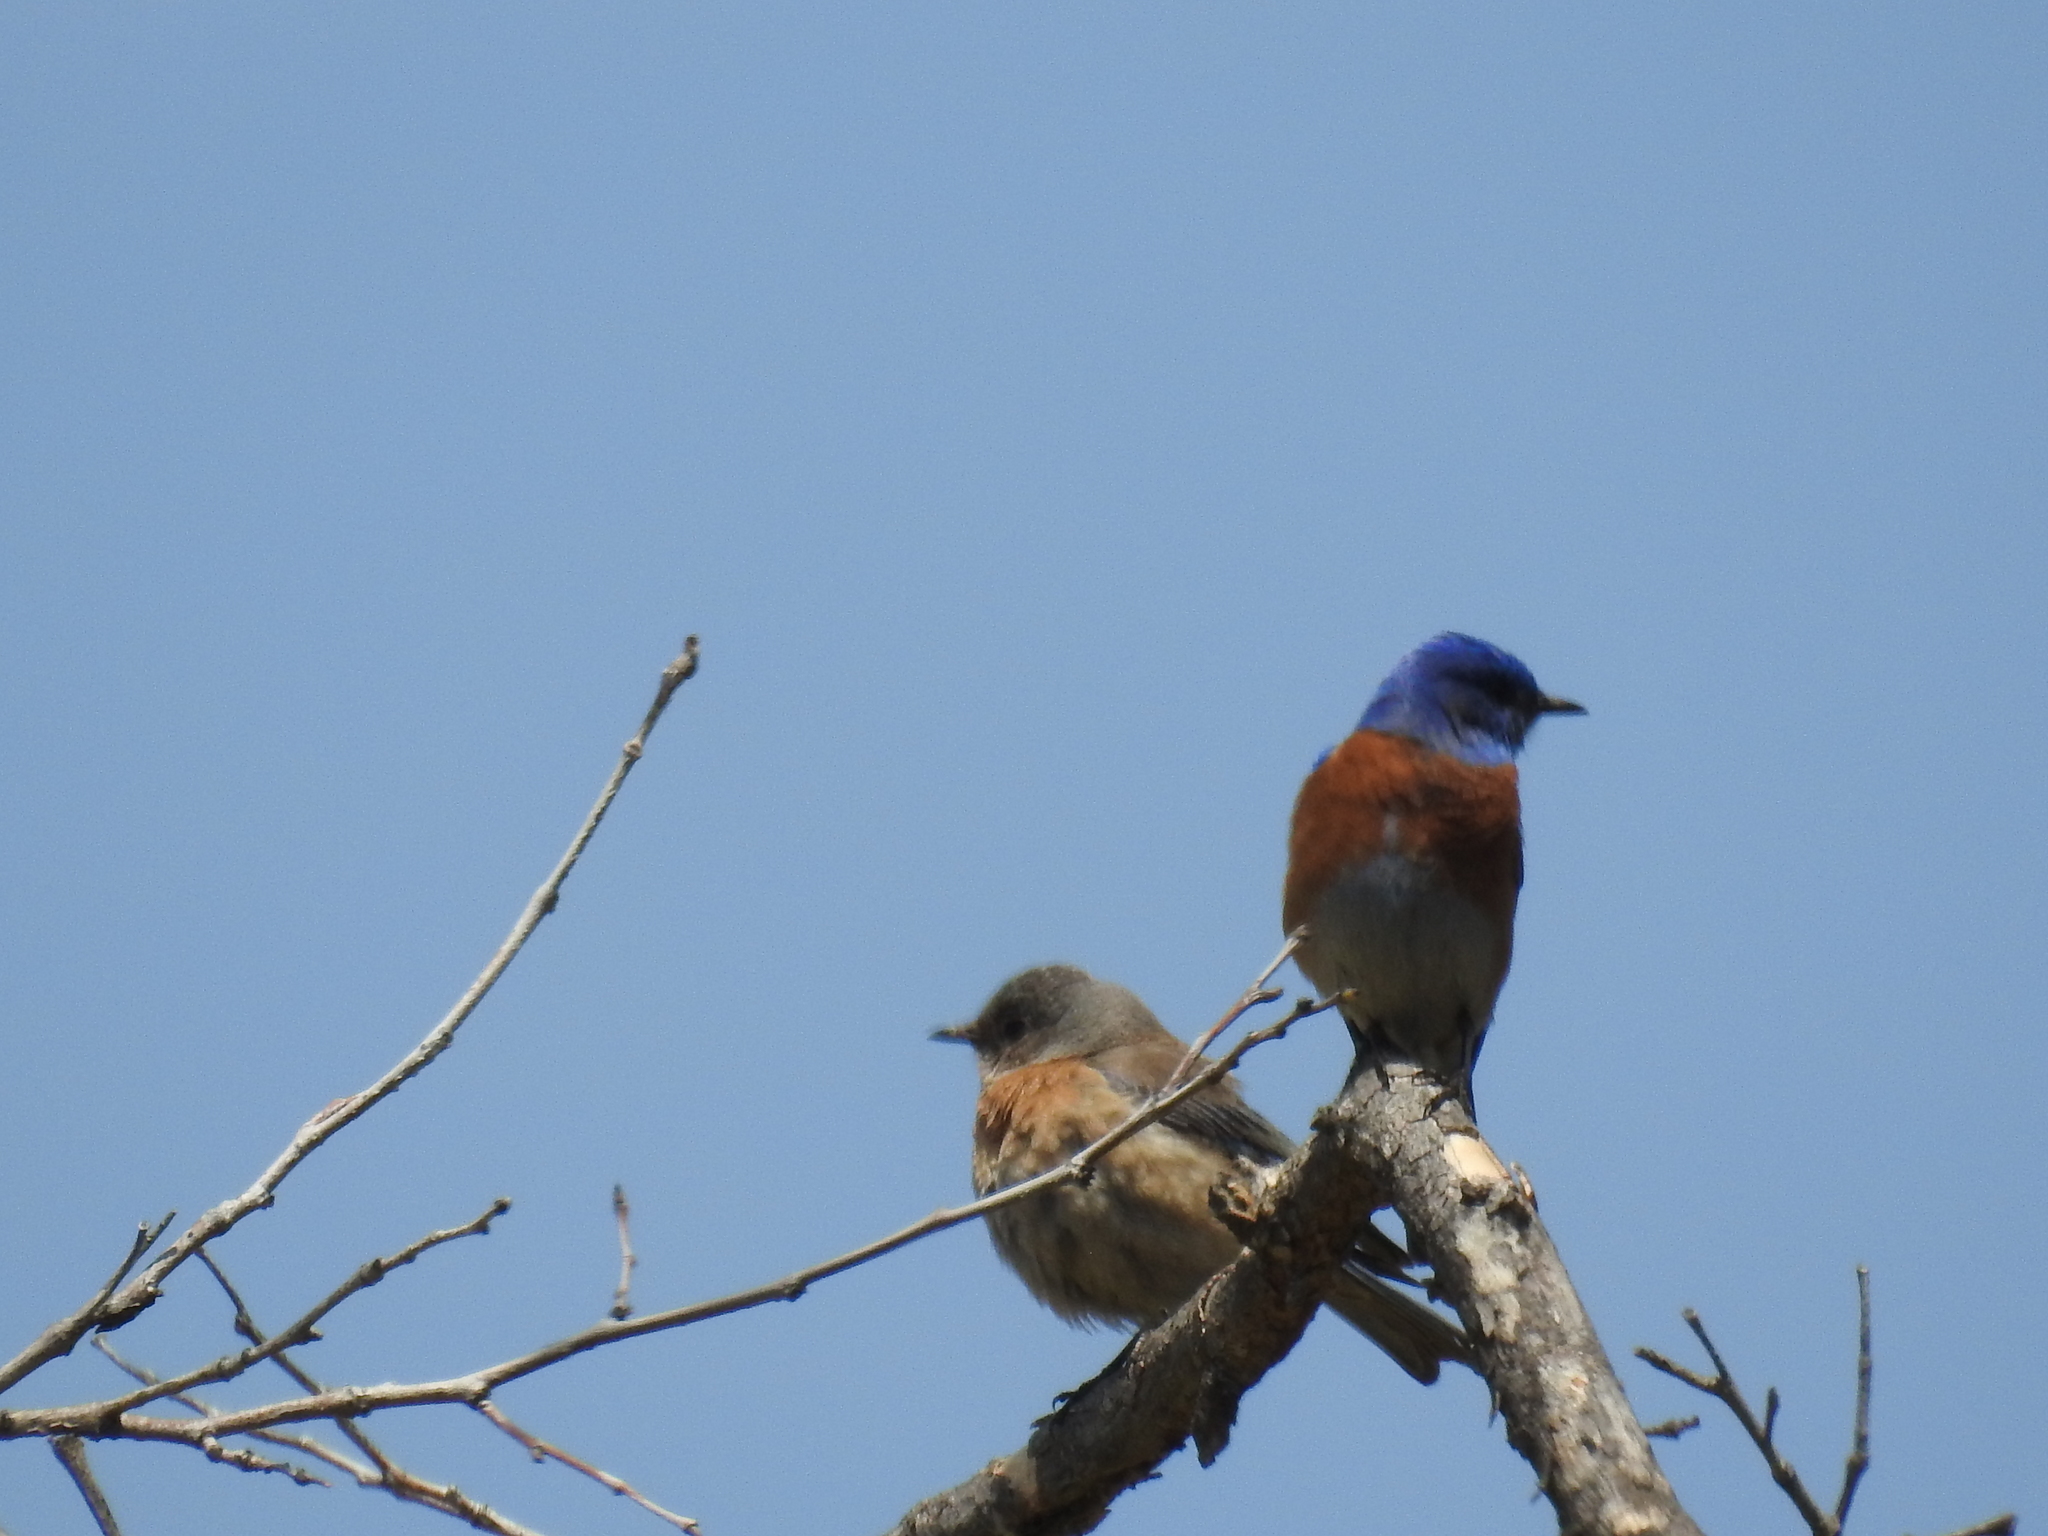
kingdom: Animalia
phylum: Chordata
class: Aves
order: Passeriformes
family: Turdidae
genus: Sialia
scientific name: Sialia mexicana
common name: Western bluebird
